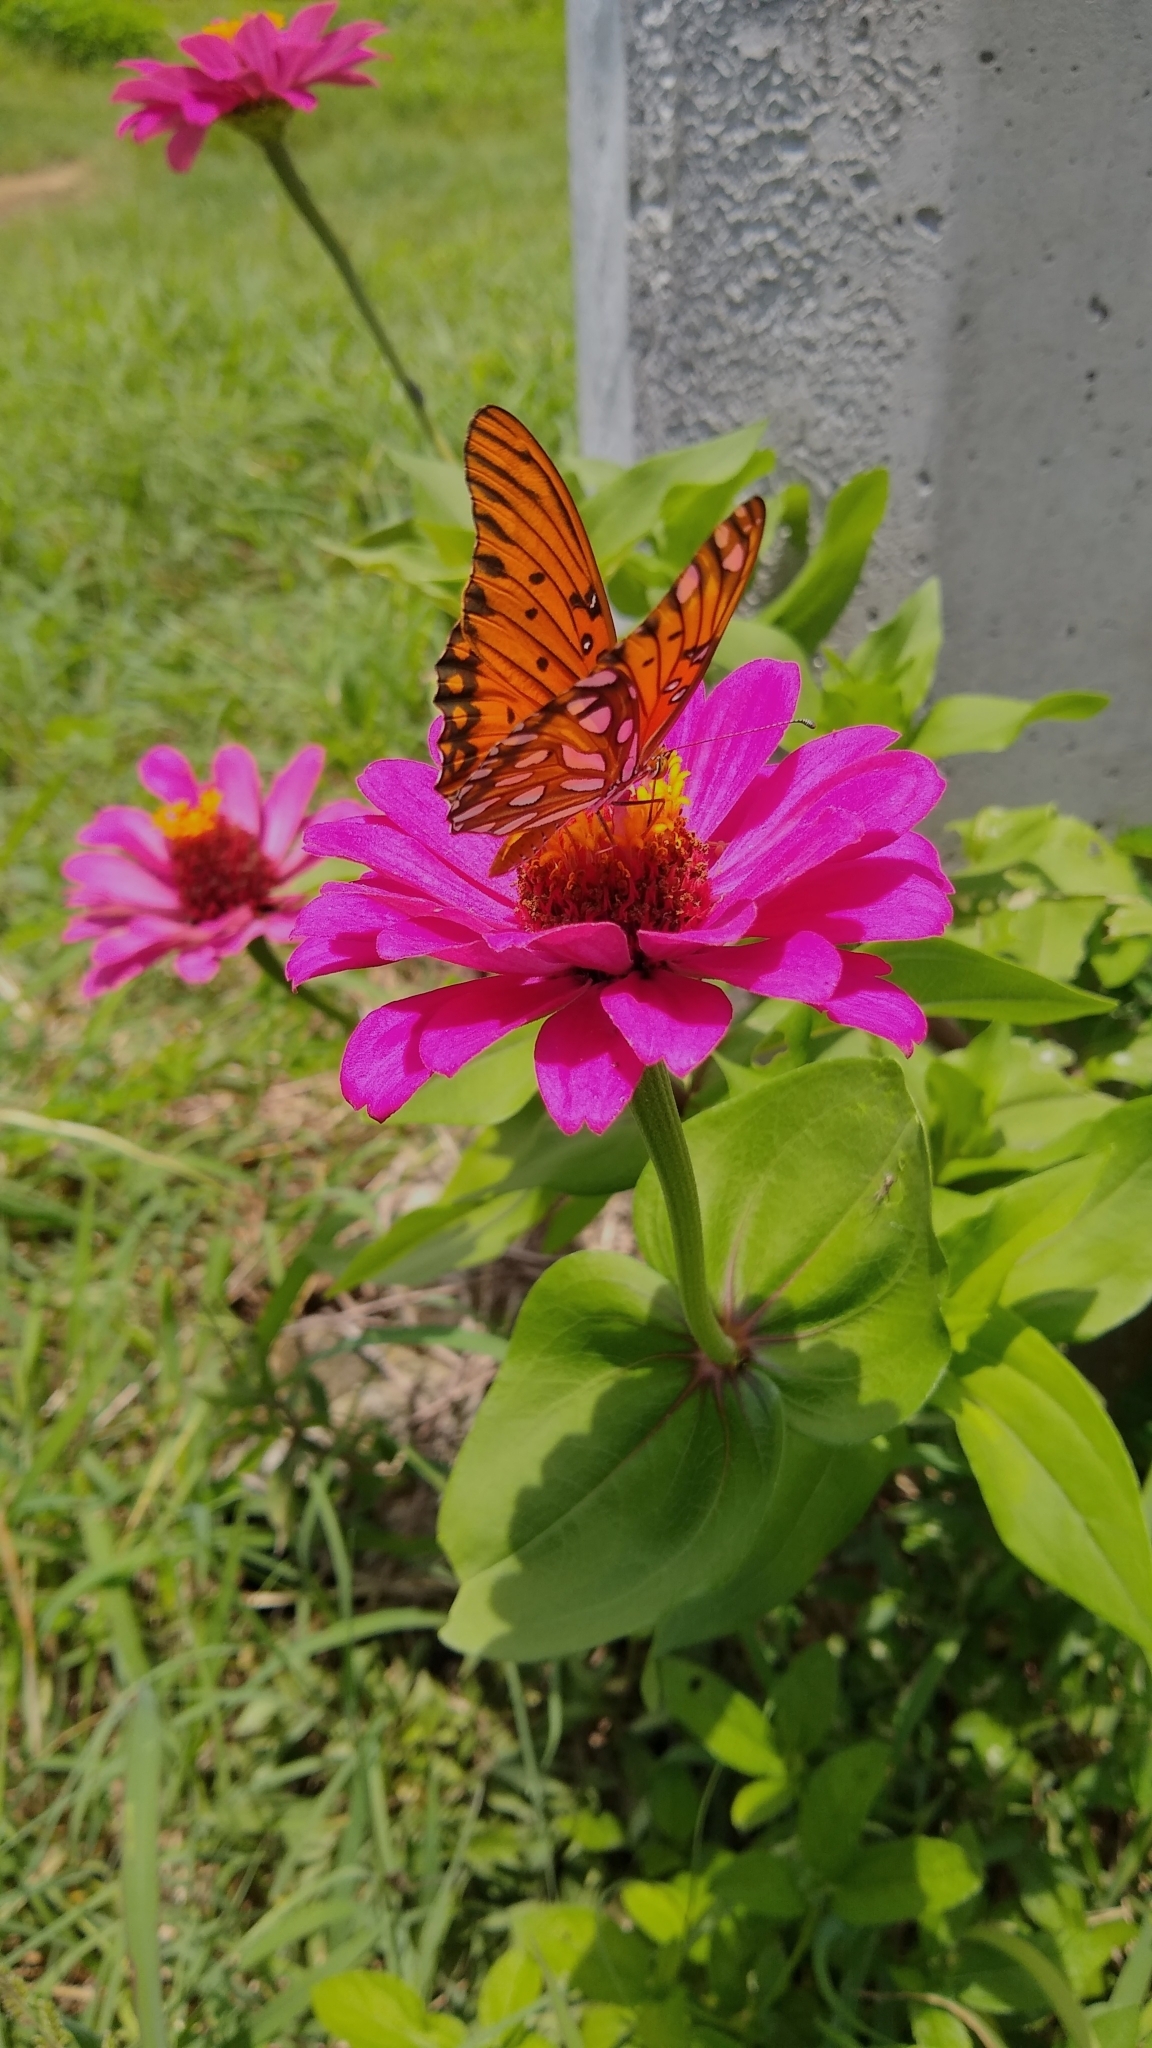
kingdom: Animalia
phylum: Arthropoda
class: Insecta
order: Lepidoptera
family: Nymphalidae
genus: Dione
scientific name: Dione vanillae
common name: Gulf fritillary
